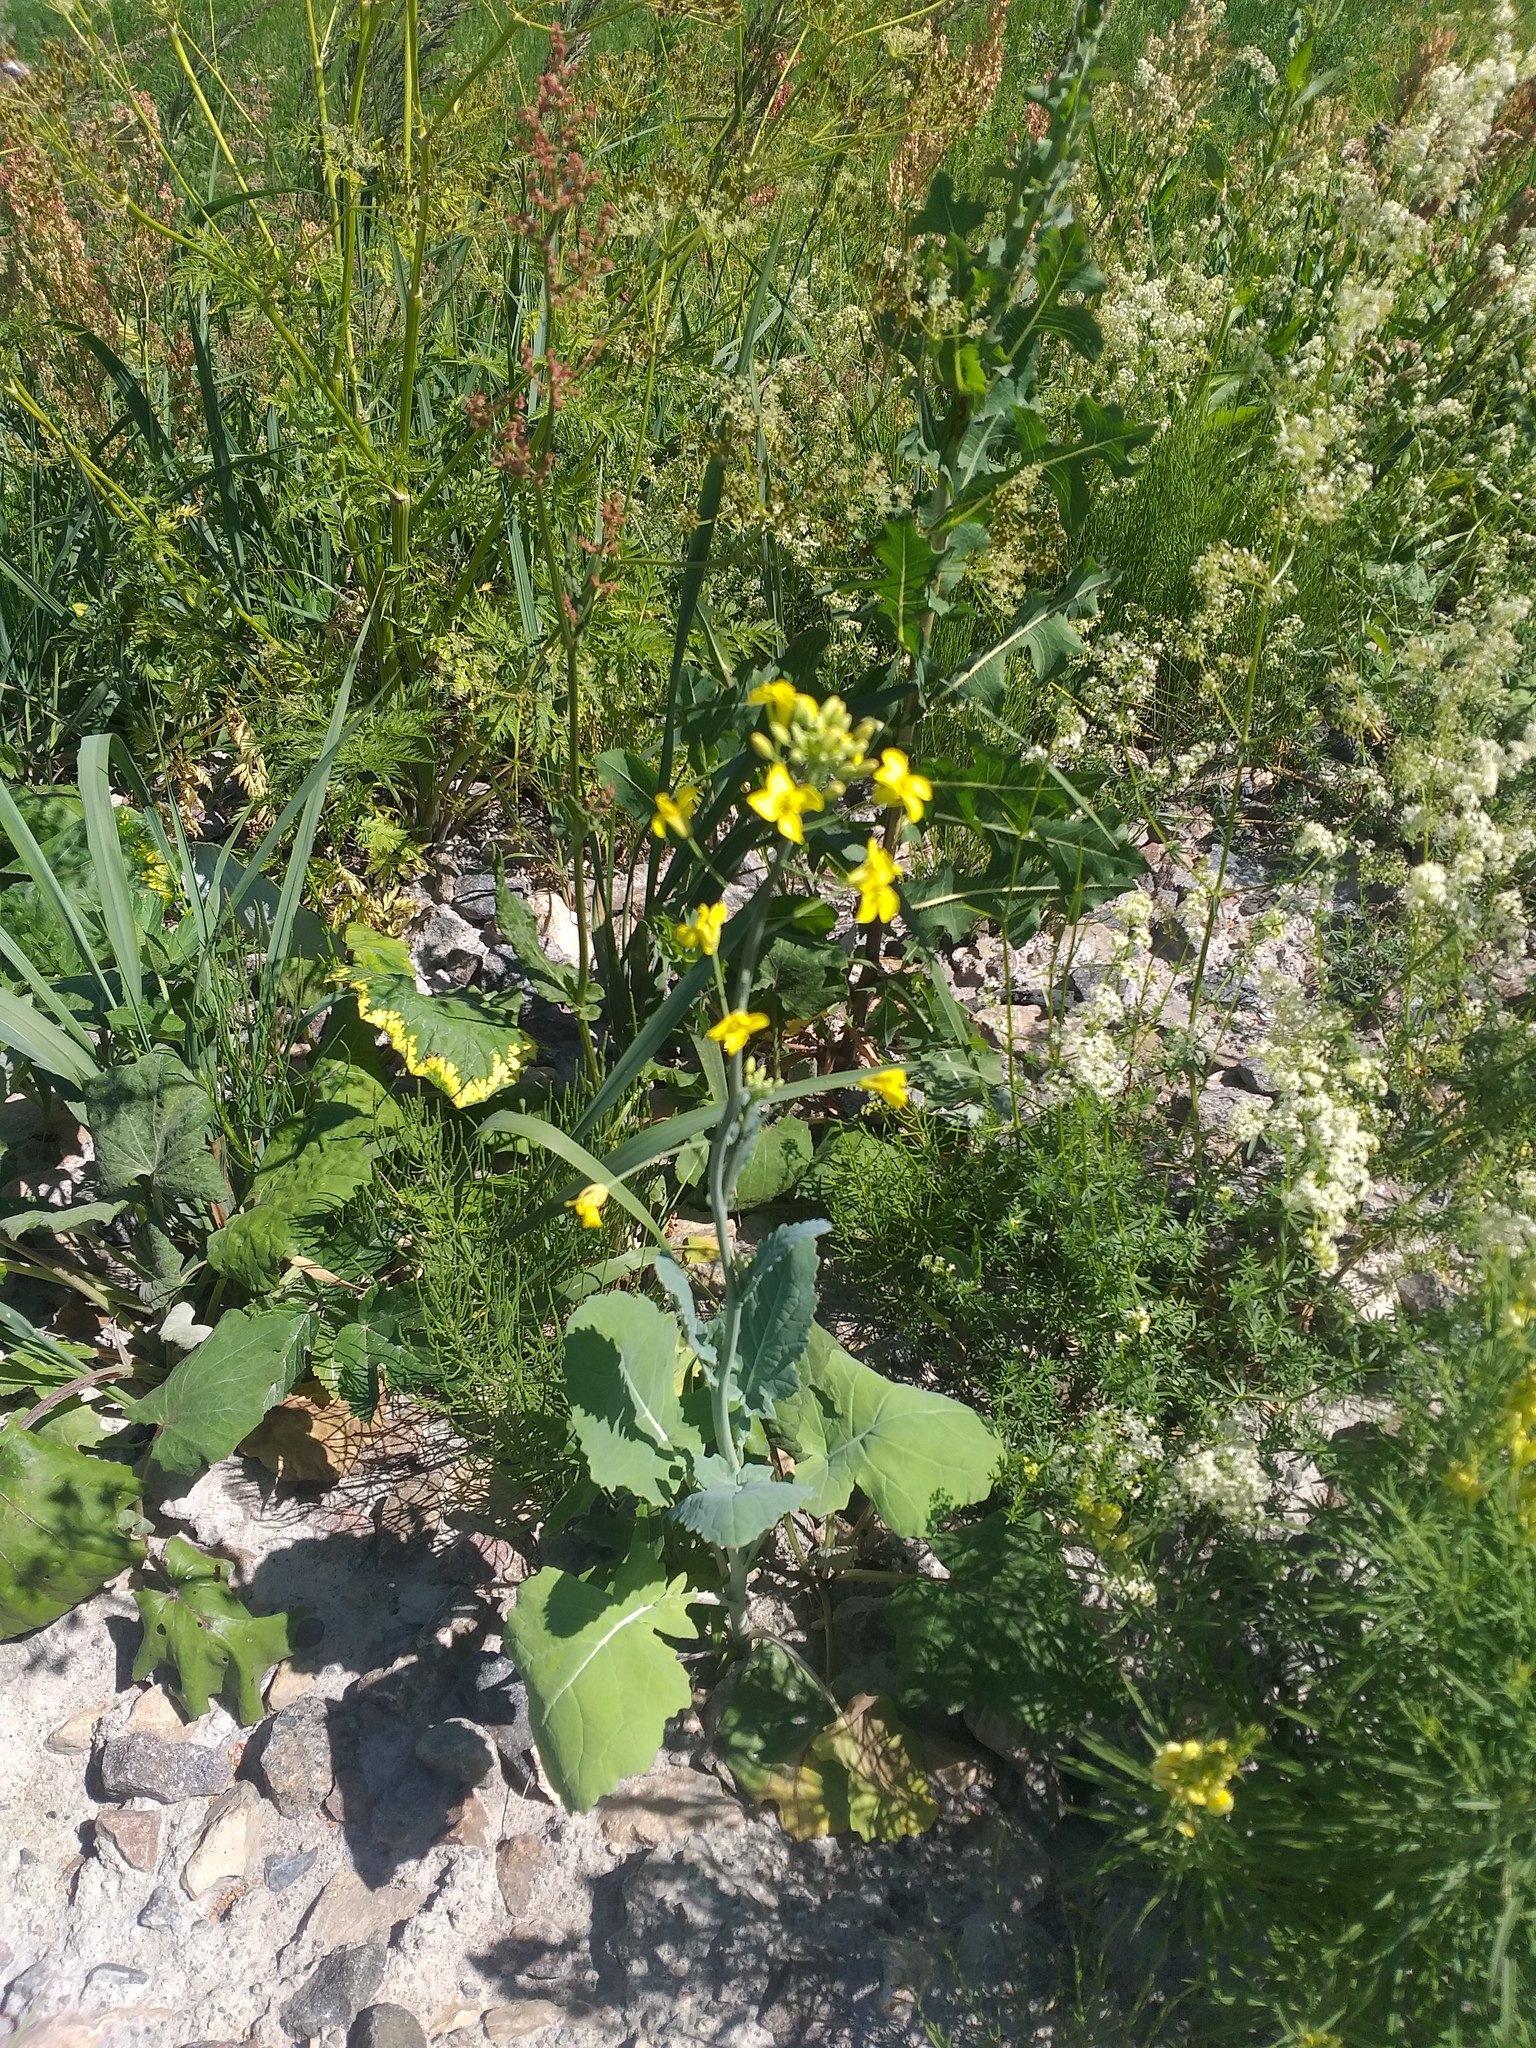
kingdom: Plantae
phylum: Tracheophyta
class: Magnoliopsida
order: Brassicales
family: Brassicaceae
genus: Brassica
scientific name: Brassica oleracea
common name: Cabbage
